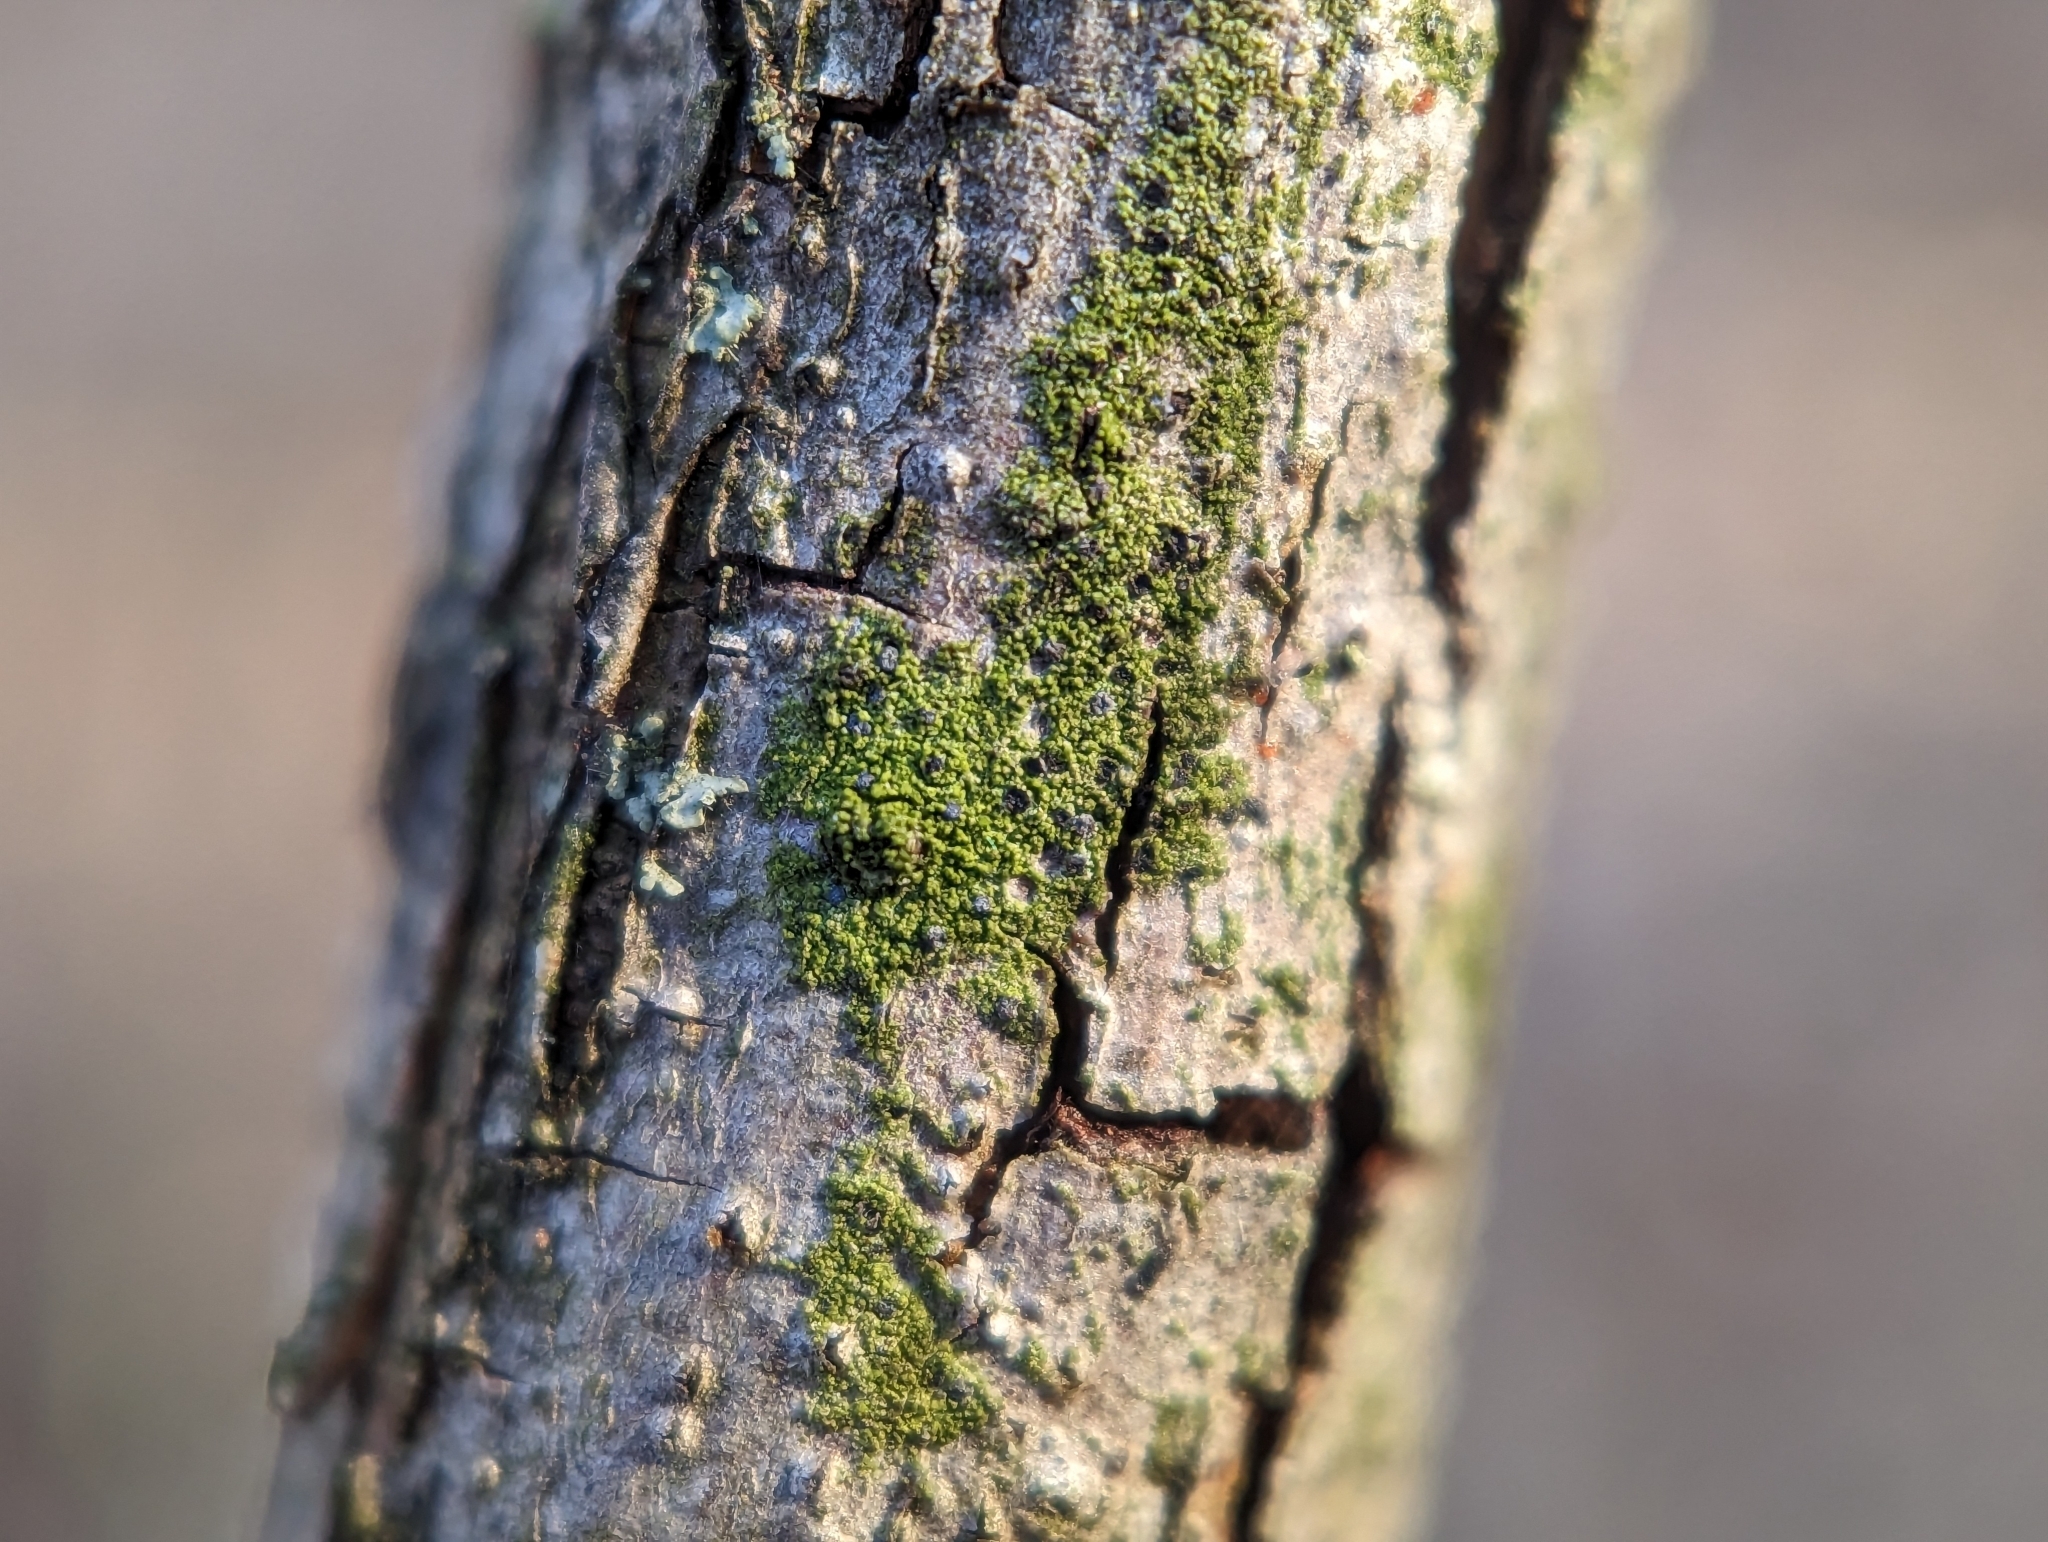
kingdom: Fungi
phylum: Ascomycota
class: Arthoniomycetes
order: Arthoniales
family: Chrysotrichaceae
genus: Chrysothrix
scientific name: Chrysothrix caesia
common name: Frosted comma lichen
